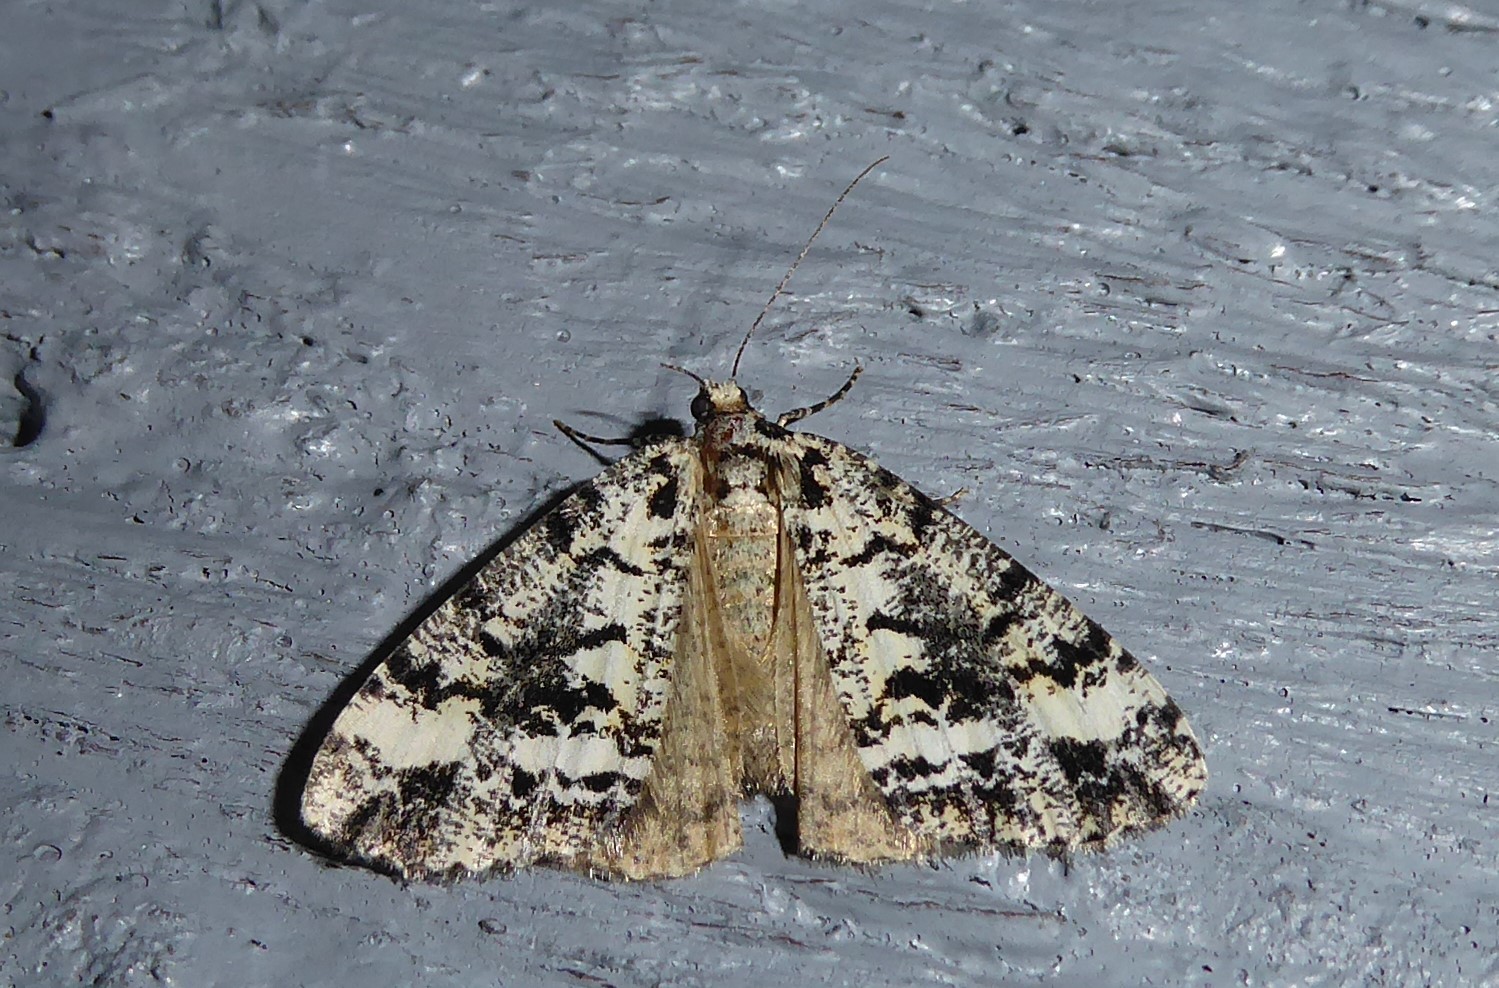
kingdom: Animalia
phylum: Arthropoda
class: Insecta
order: Lepidoptera
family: Geometridae
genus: Pseudocoremia
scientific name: Pseudocoremia leucelaea
